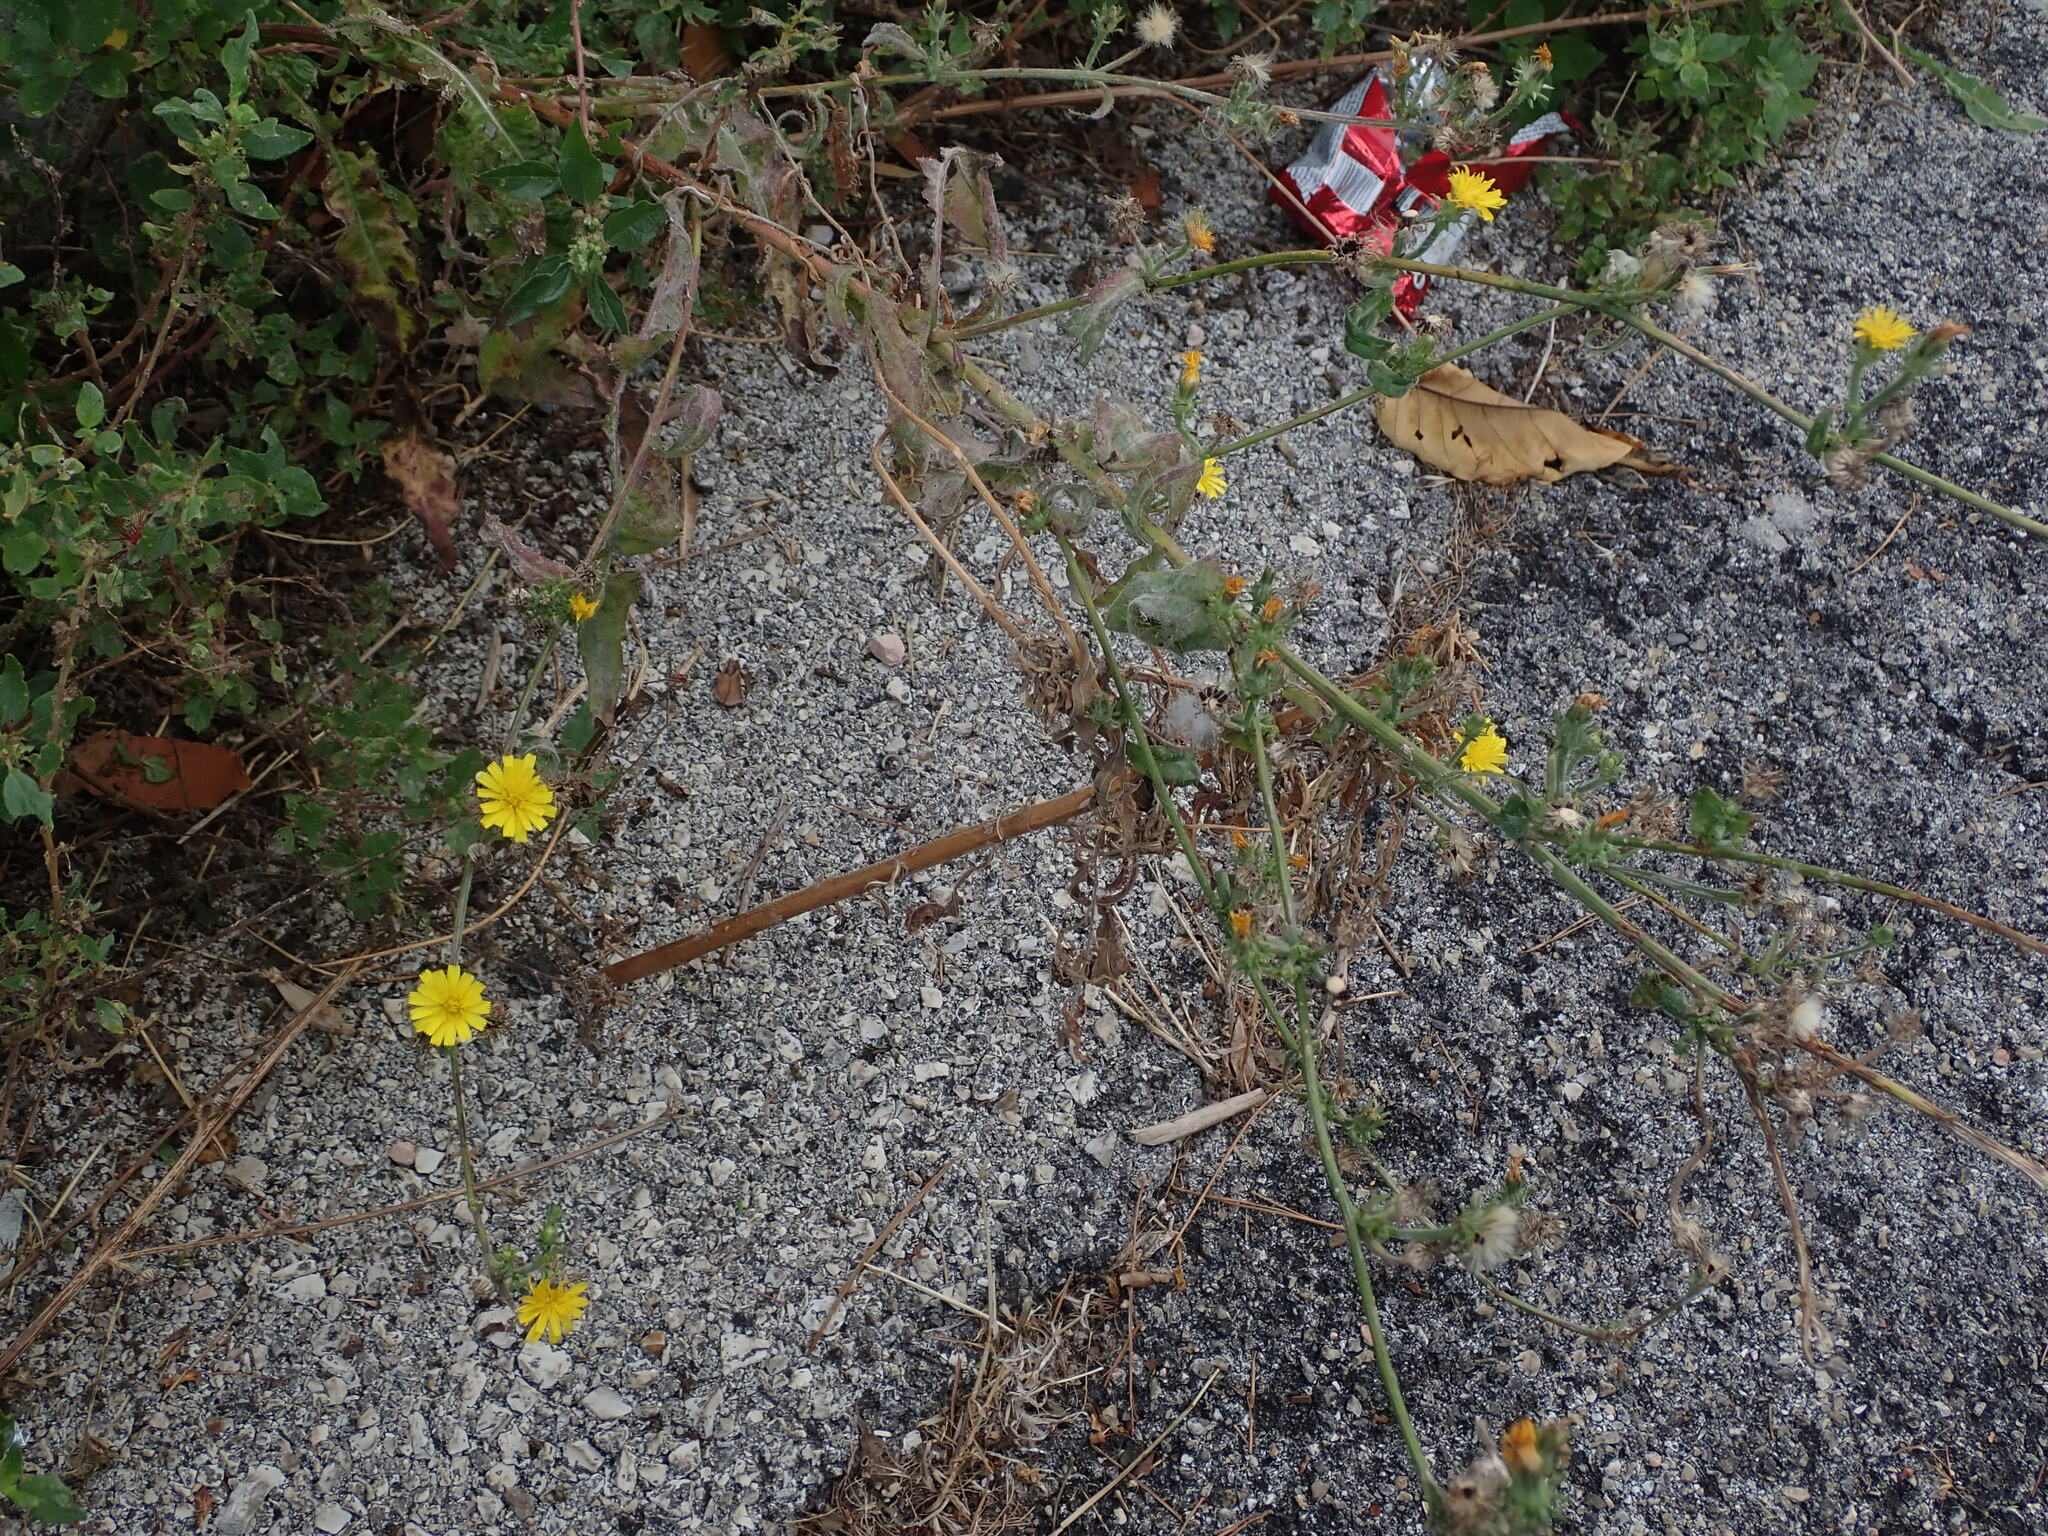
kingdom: Plantae
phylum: Tracheophyta
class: Magnoliopsida
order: Asterales
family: Asteraceae
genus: Picris
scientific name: Picris hieracioides
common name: Hawkweed oxtongue
